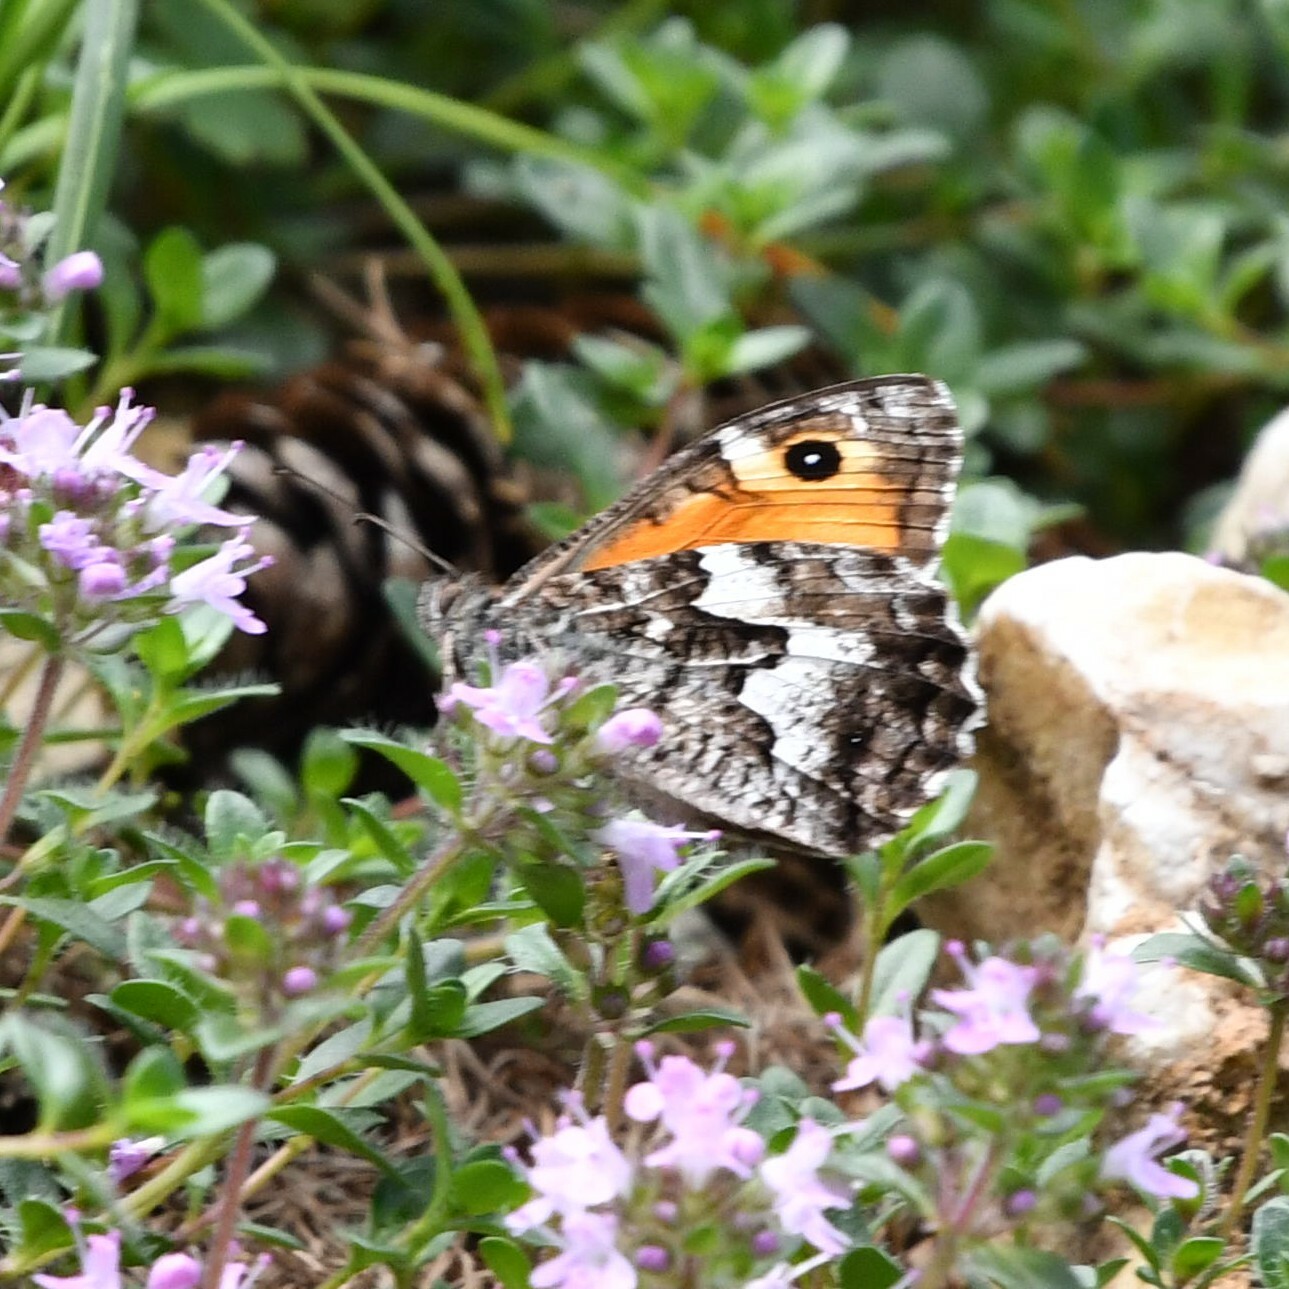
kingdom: Animalia
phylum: Arthropoda
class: Insecta
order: Lepidoptera
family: Nymphalidae
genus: Hipparchia
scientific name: Hipparchia semele
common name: Grayling
